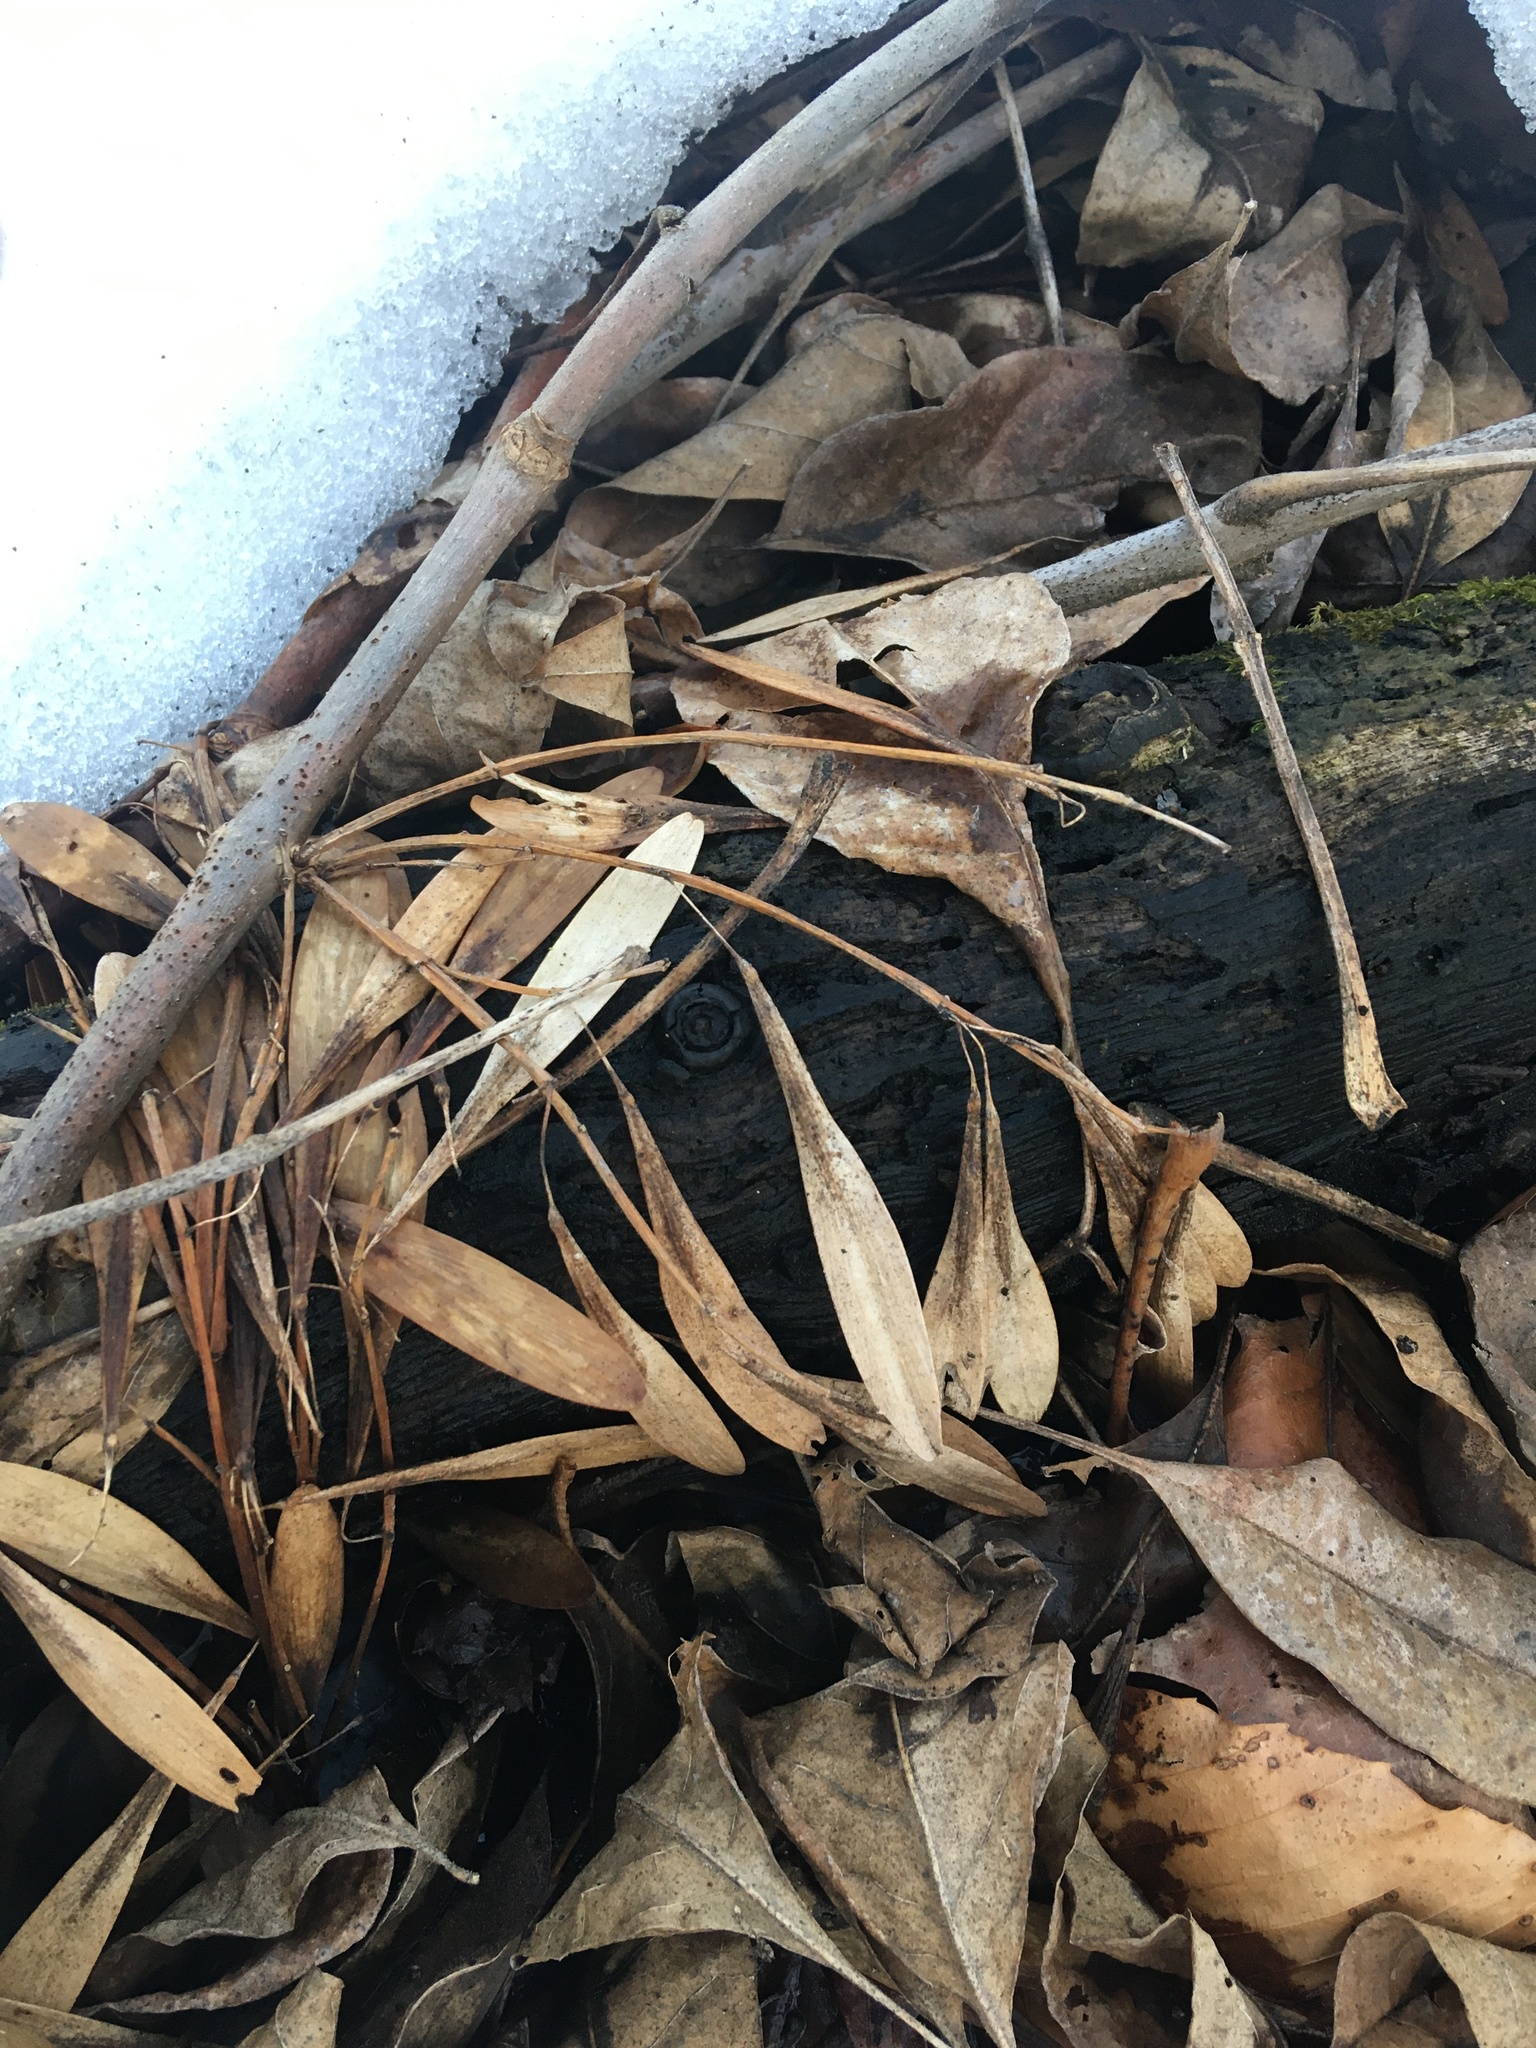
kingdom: Plantae
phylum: Tracheophyta
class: Magnoliopsida
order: Lamiales
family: Oleaceae
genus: Fraxinus
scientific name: Fraxinus profunda
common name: Pumpkin ash
